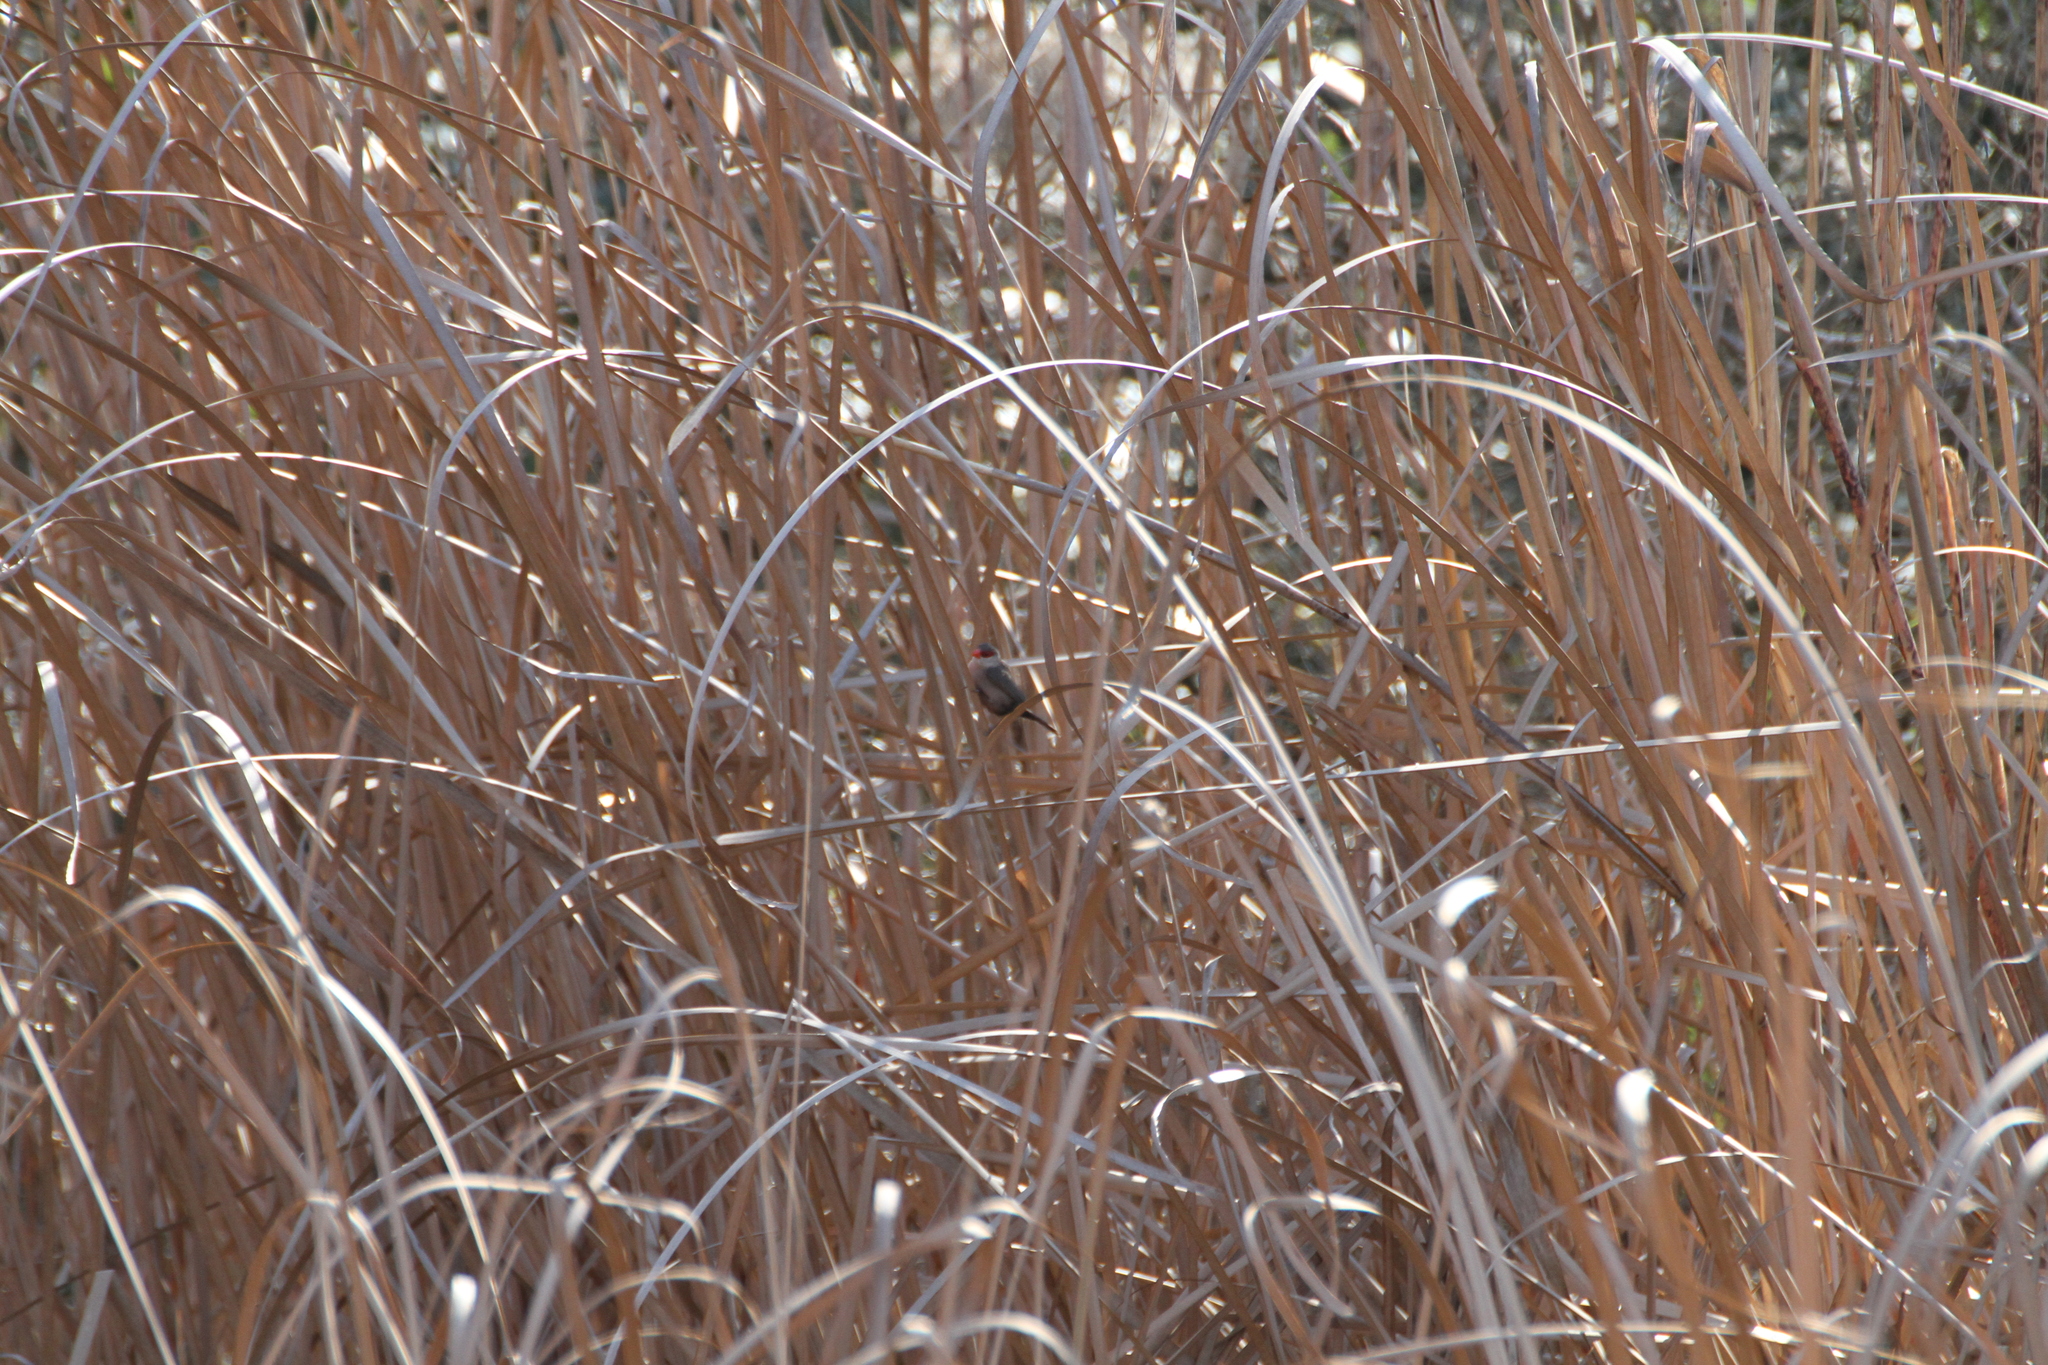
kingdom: Animalia
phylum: Chordata
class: Aves
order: Passeriformes
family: Estrildidae
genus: Estrilda
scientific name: Estrilda astrild
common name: Common waxbill
